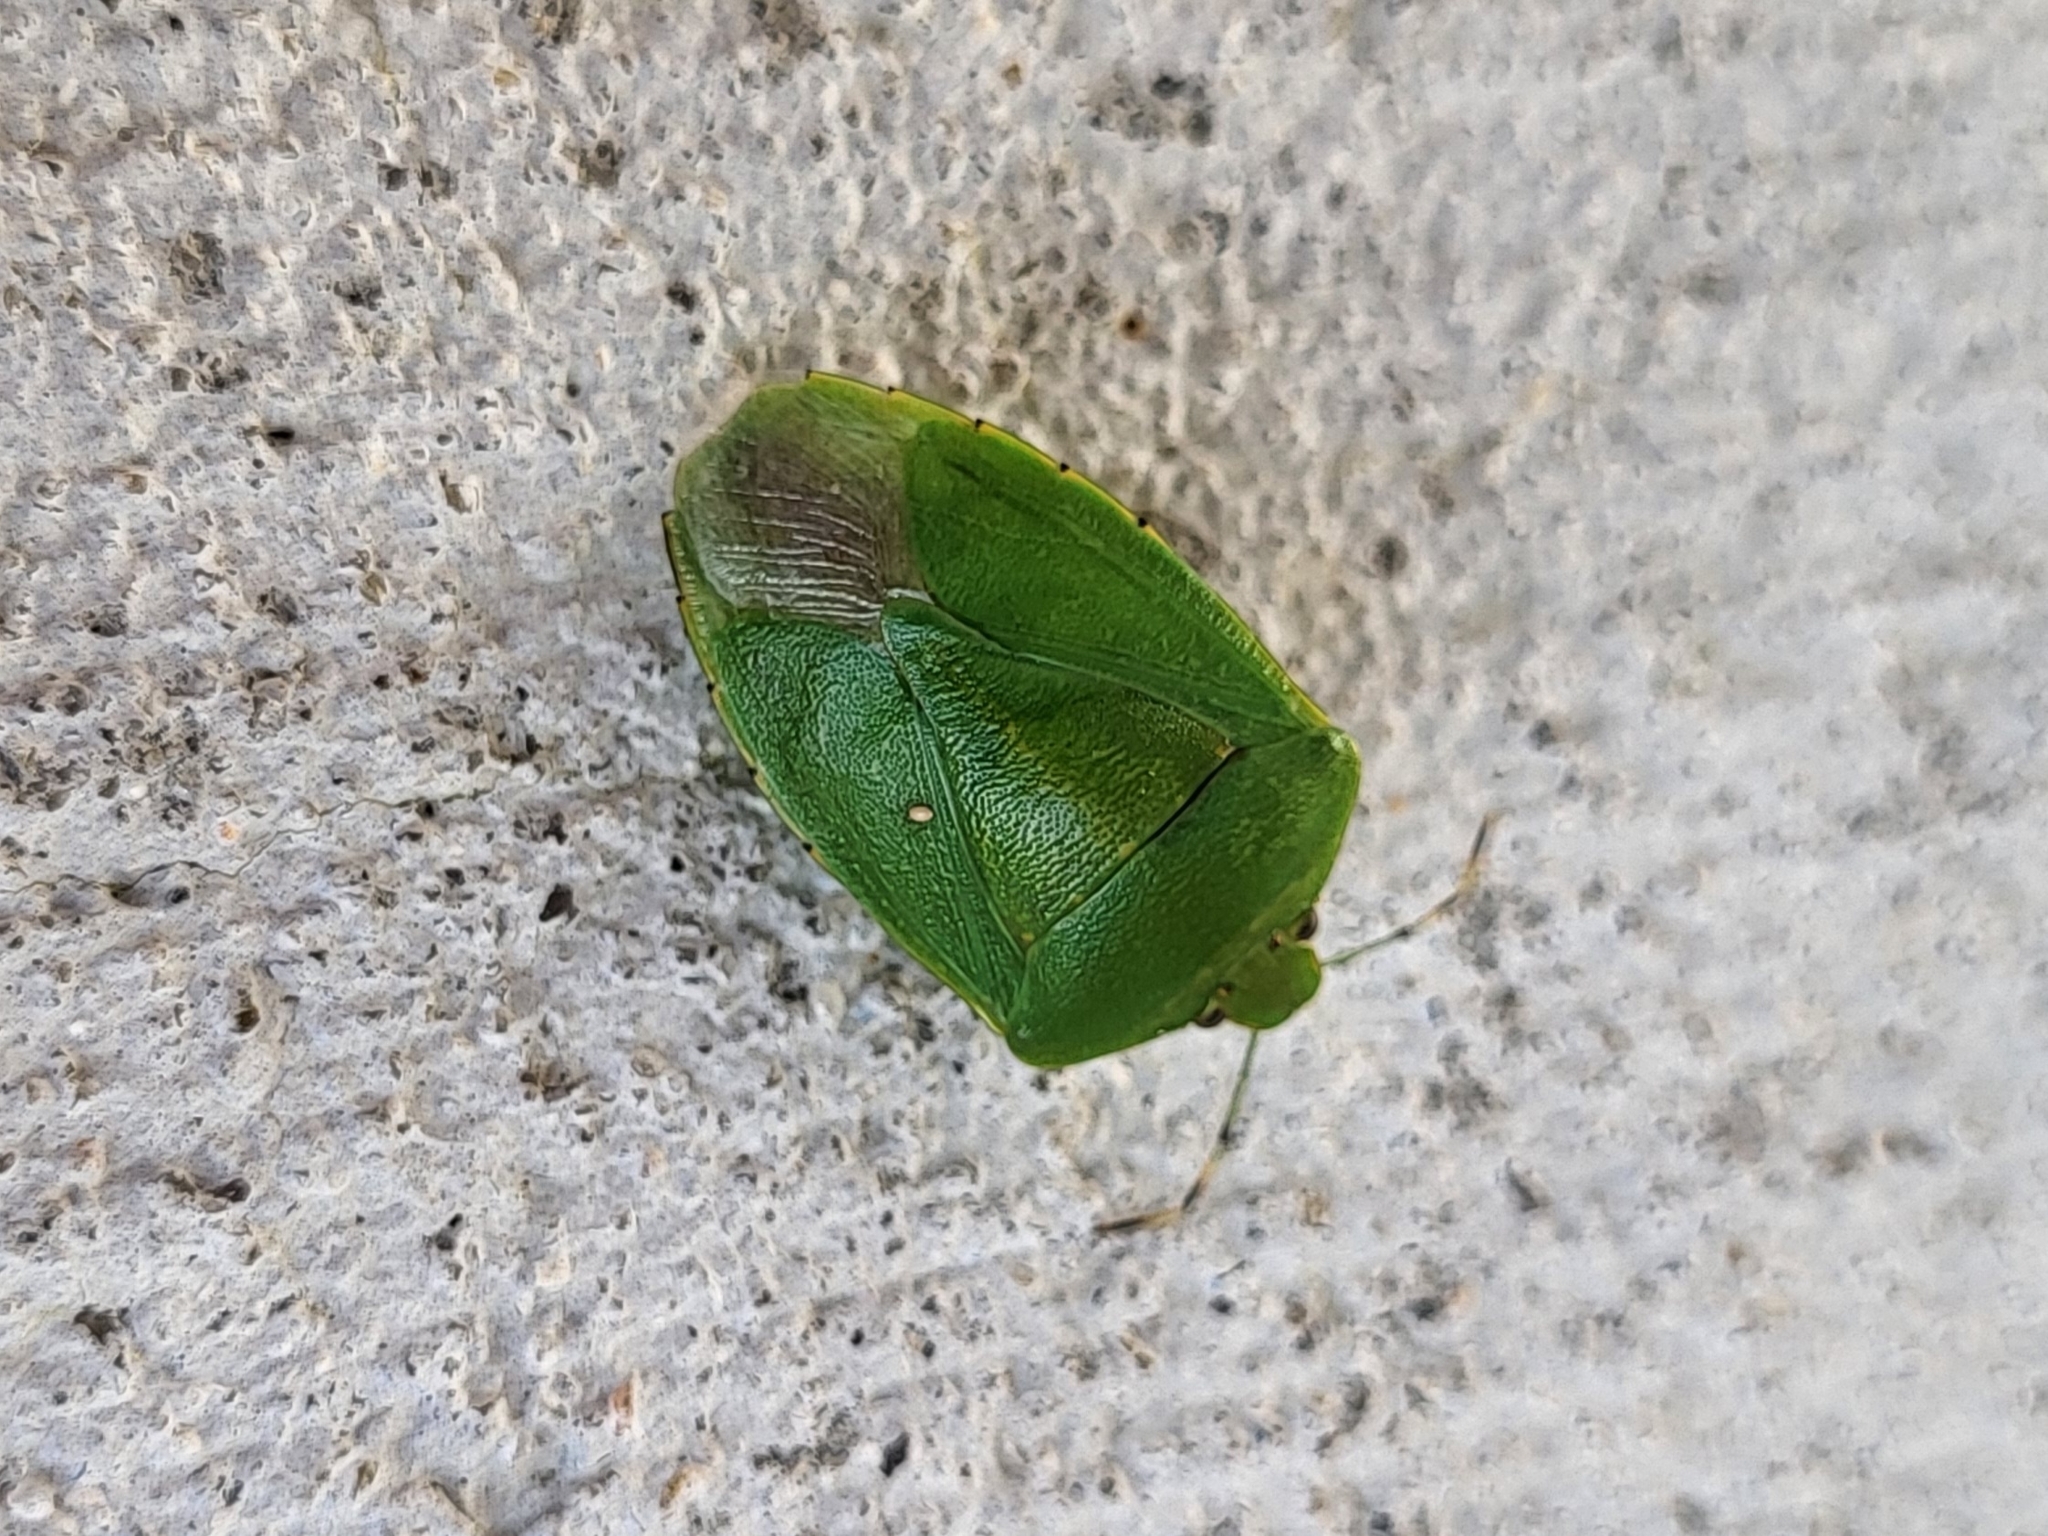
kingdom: Animalia
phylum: Arthropoda
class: Insecta
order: Hemiptera
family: Pentatomidae
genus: Chinavia
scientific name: Chinavia hilaris
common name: Green stink bug
